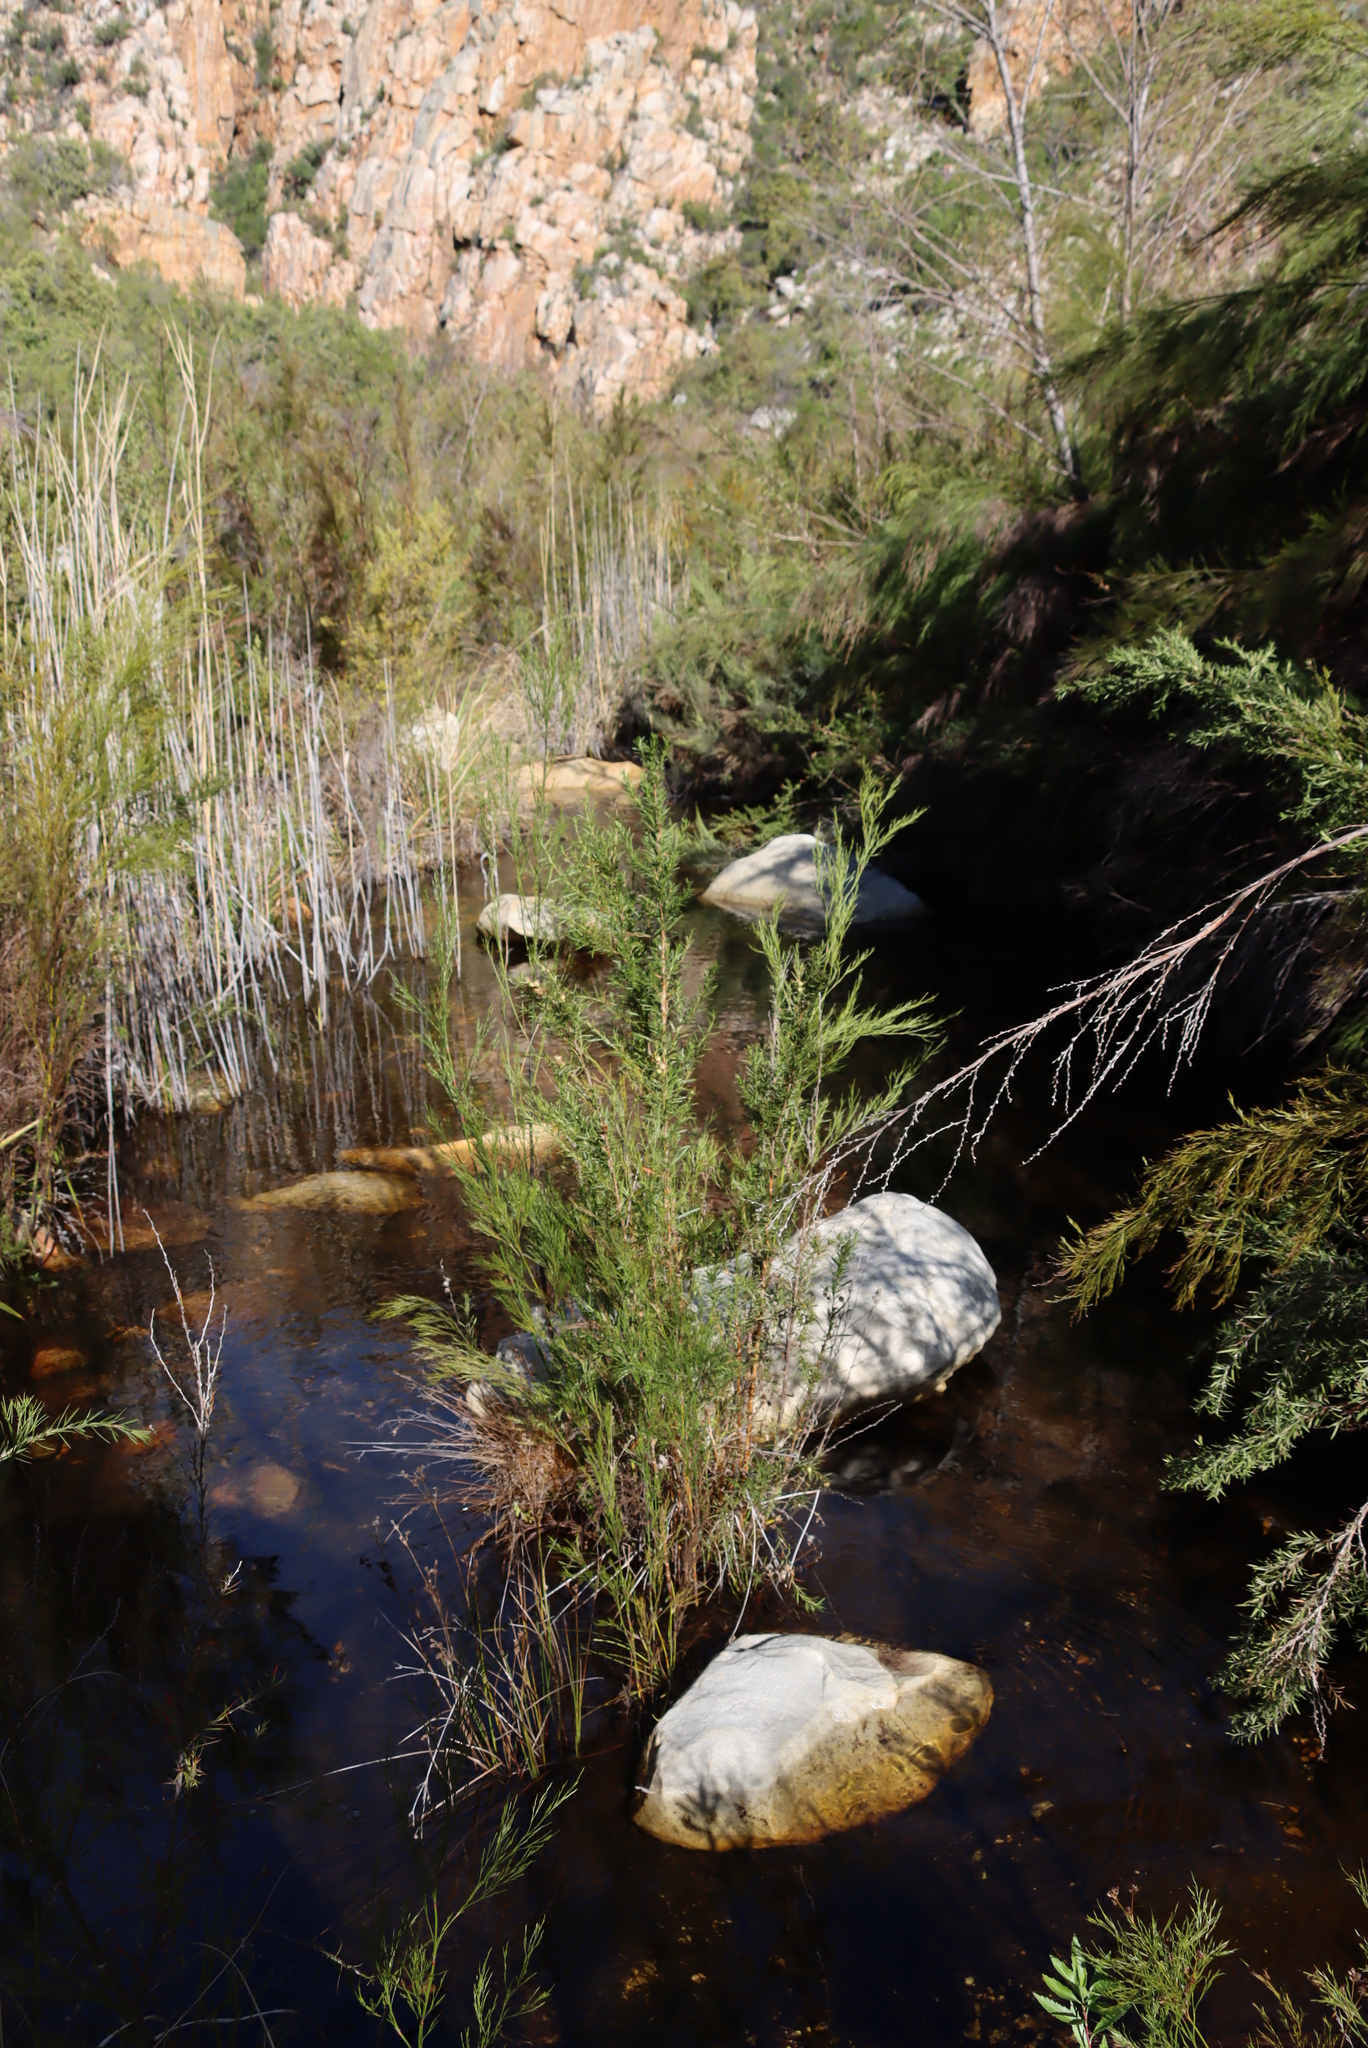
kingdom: Plantae
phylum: Tracheophyta
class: Magnoliopsida
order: Rosales
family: Rosaceae
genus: Cliffortia
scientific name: Cliffortia strobilifera
